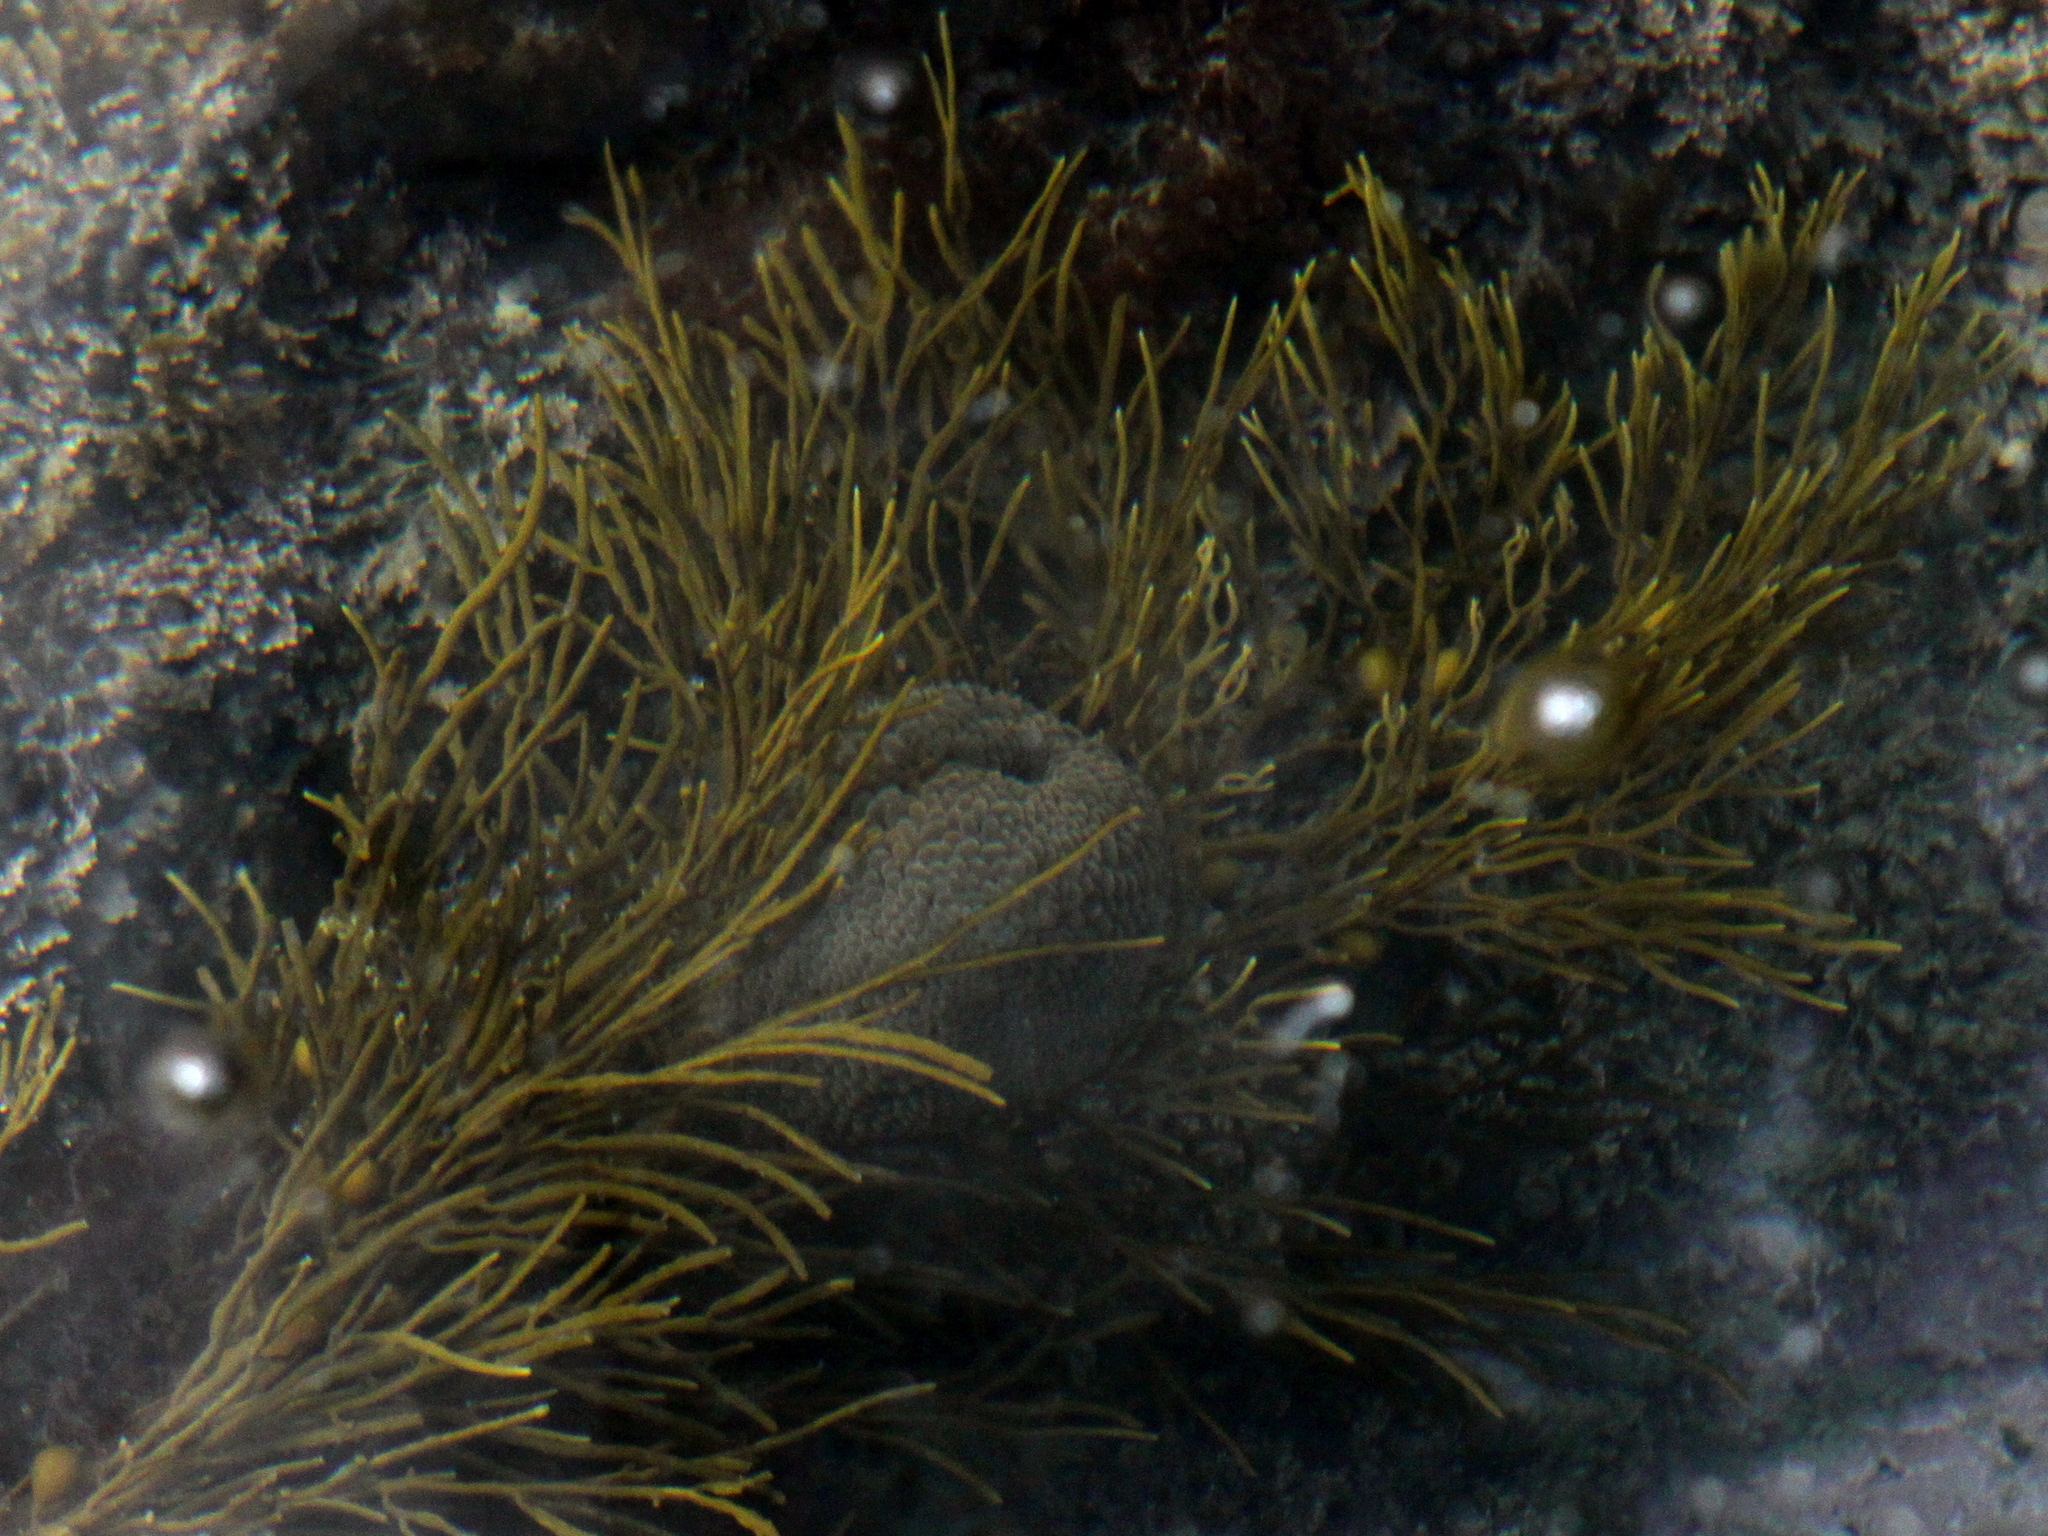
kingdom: Animalia
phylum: Cnidaria
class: Anthozoa
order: Actiniaria
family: Actiniidae
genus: Phlyctenactis
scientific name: Phlyctenactis tuberculosa
